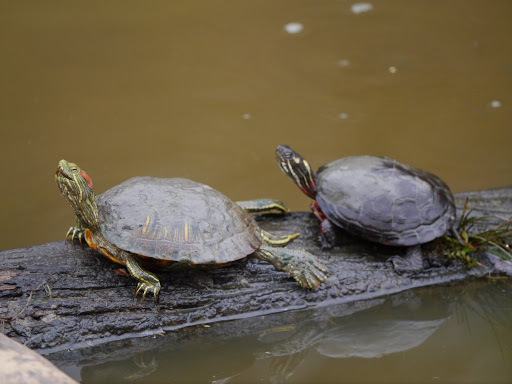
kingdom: Animalia
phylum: Chordata
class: Testudines
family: Emydidae
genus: Trachemys
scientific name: Trachemys scripta
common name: Slider
